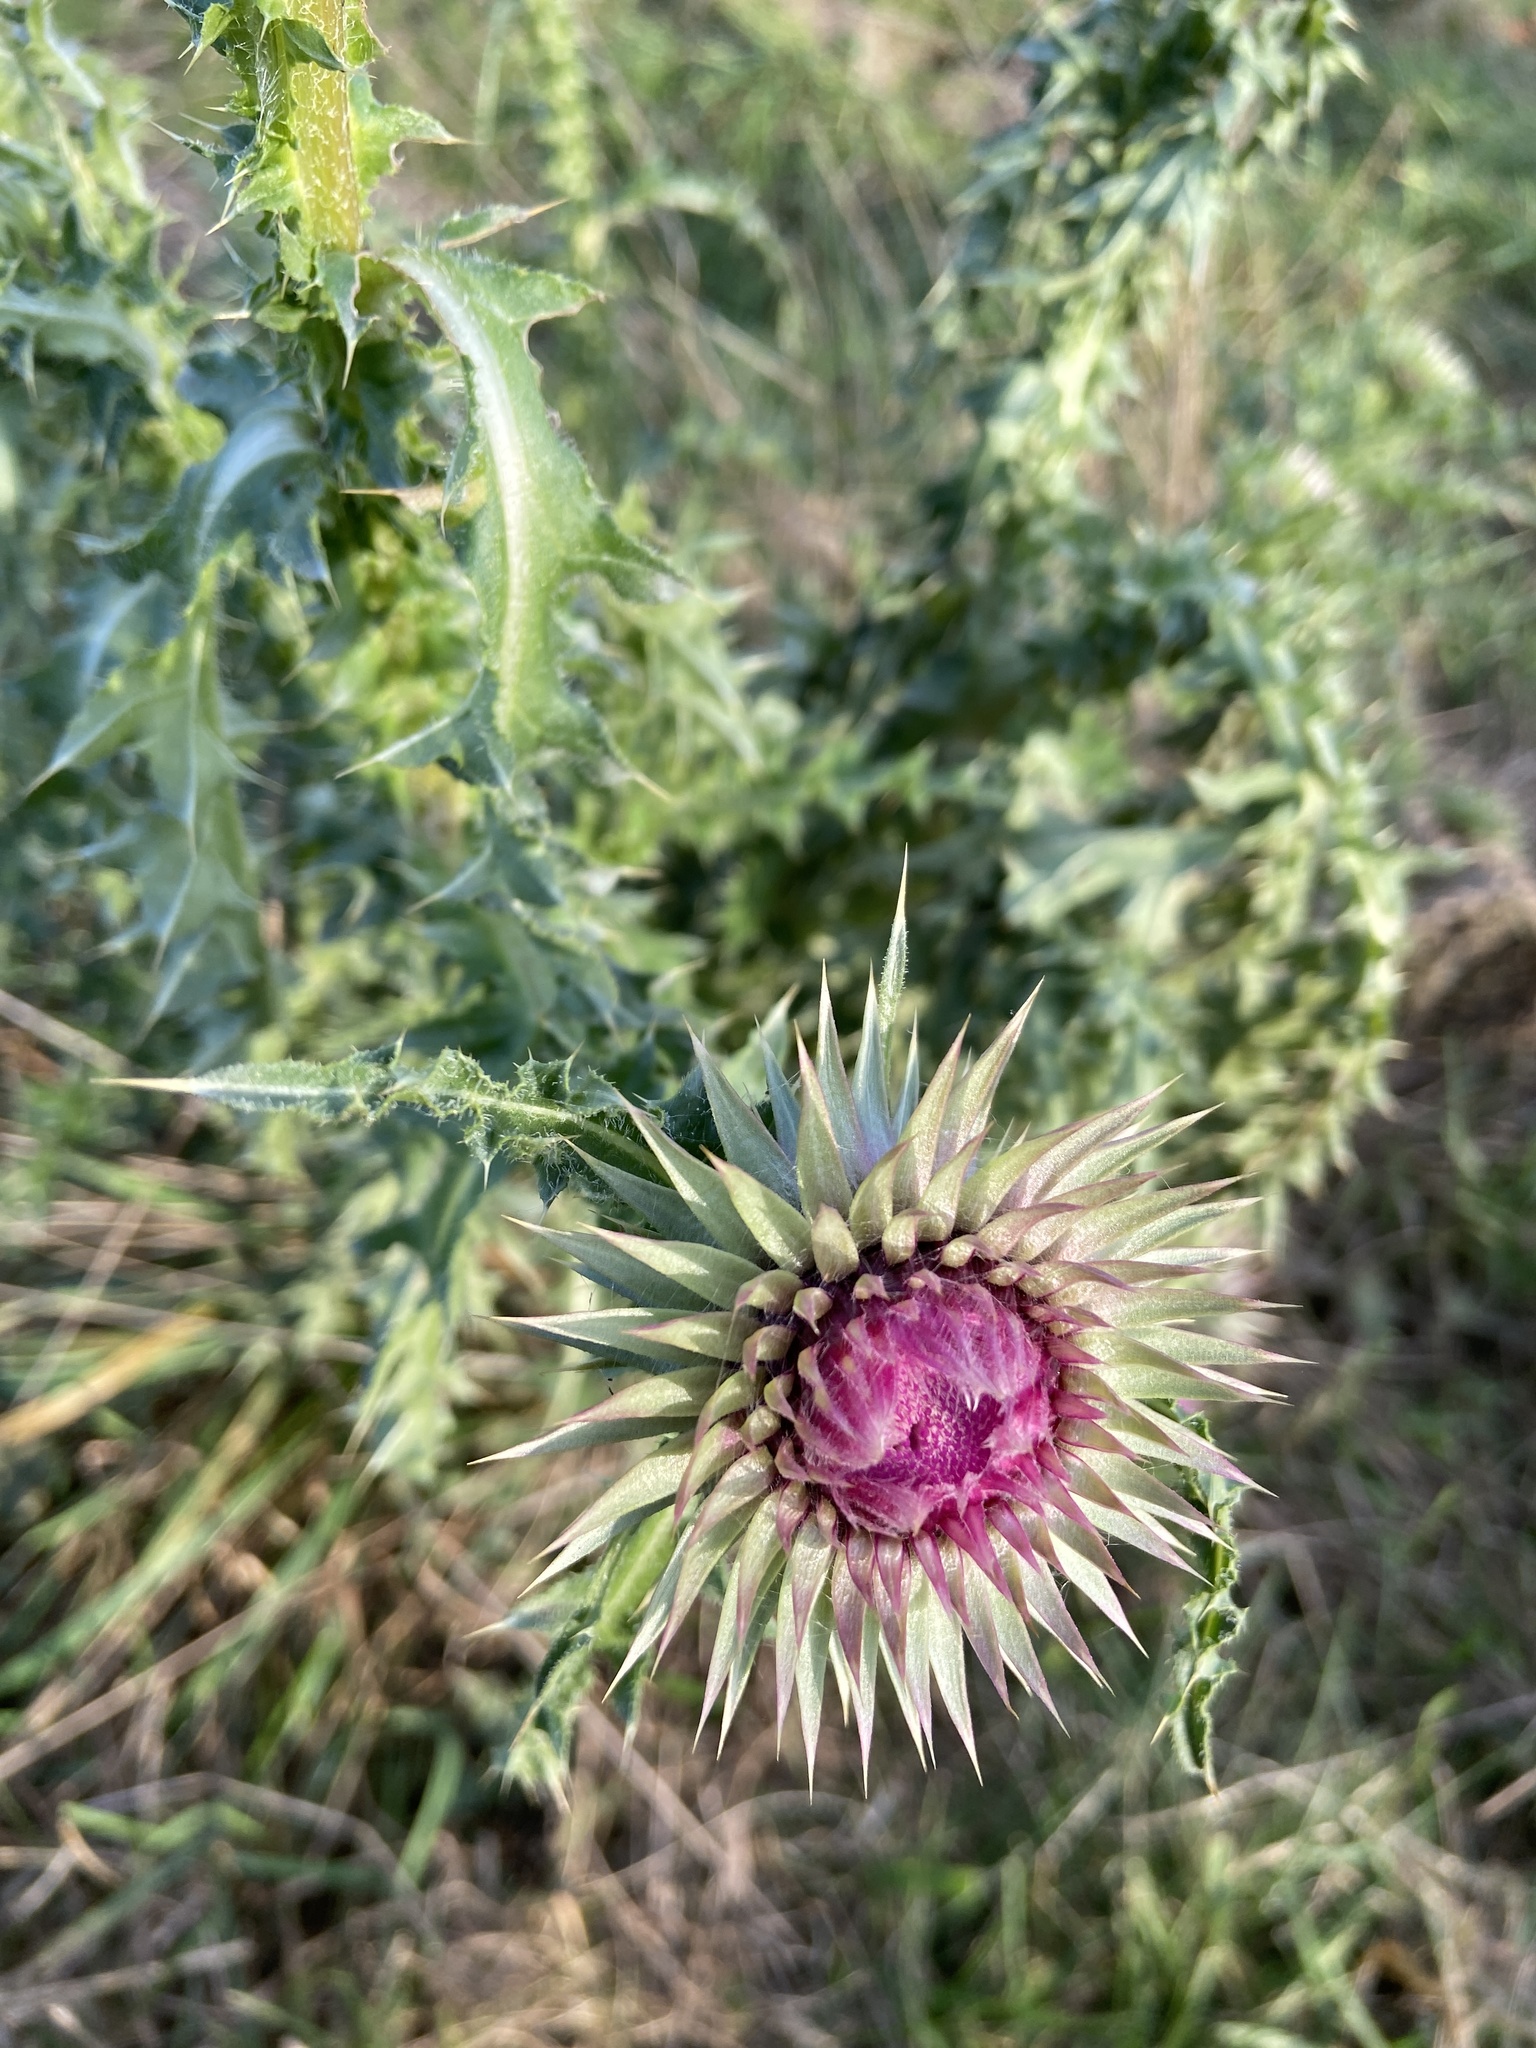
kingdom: Plantae
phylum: Tracheophyta
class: Magnoliopsida
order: Asterales
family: Asteraceae
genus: Carduus
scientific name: Carduus nutans
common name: Musk thistle
